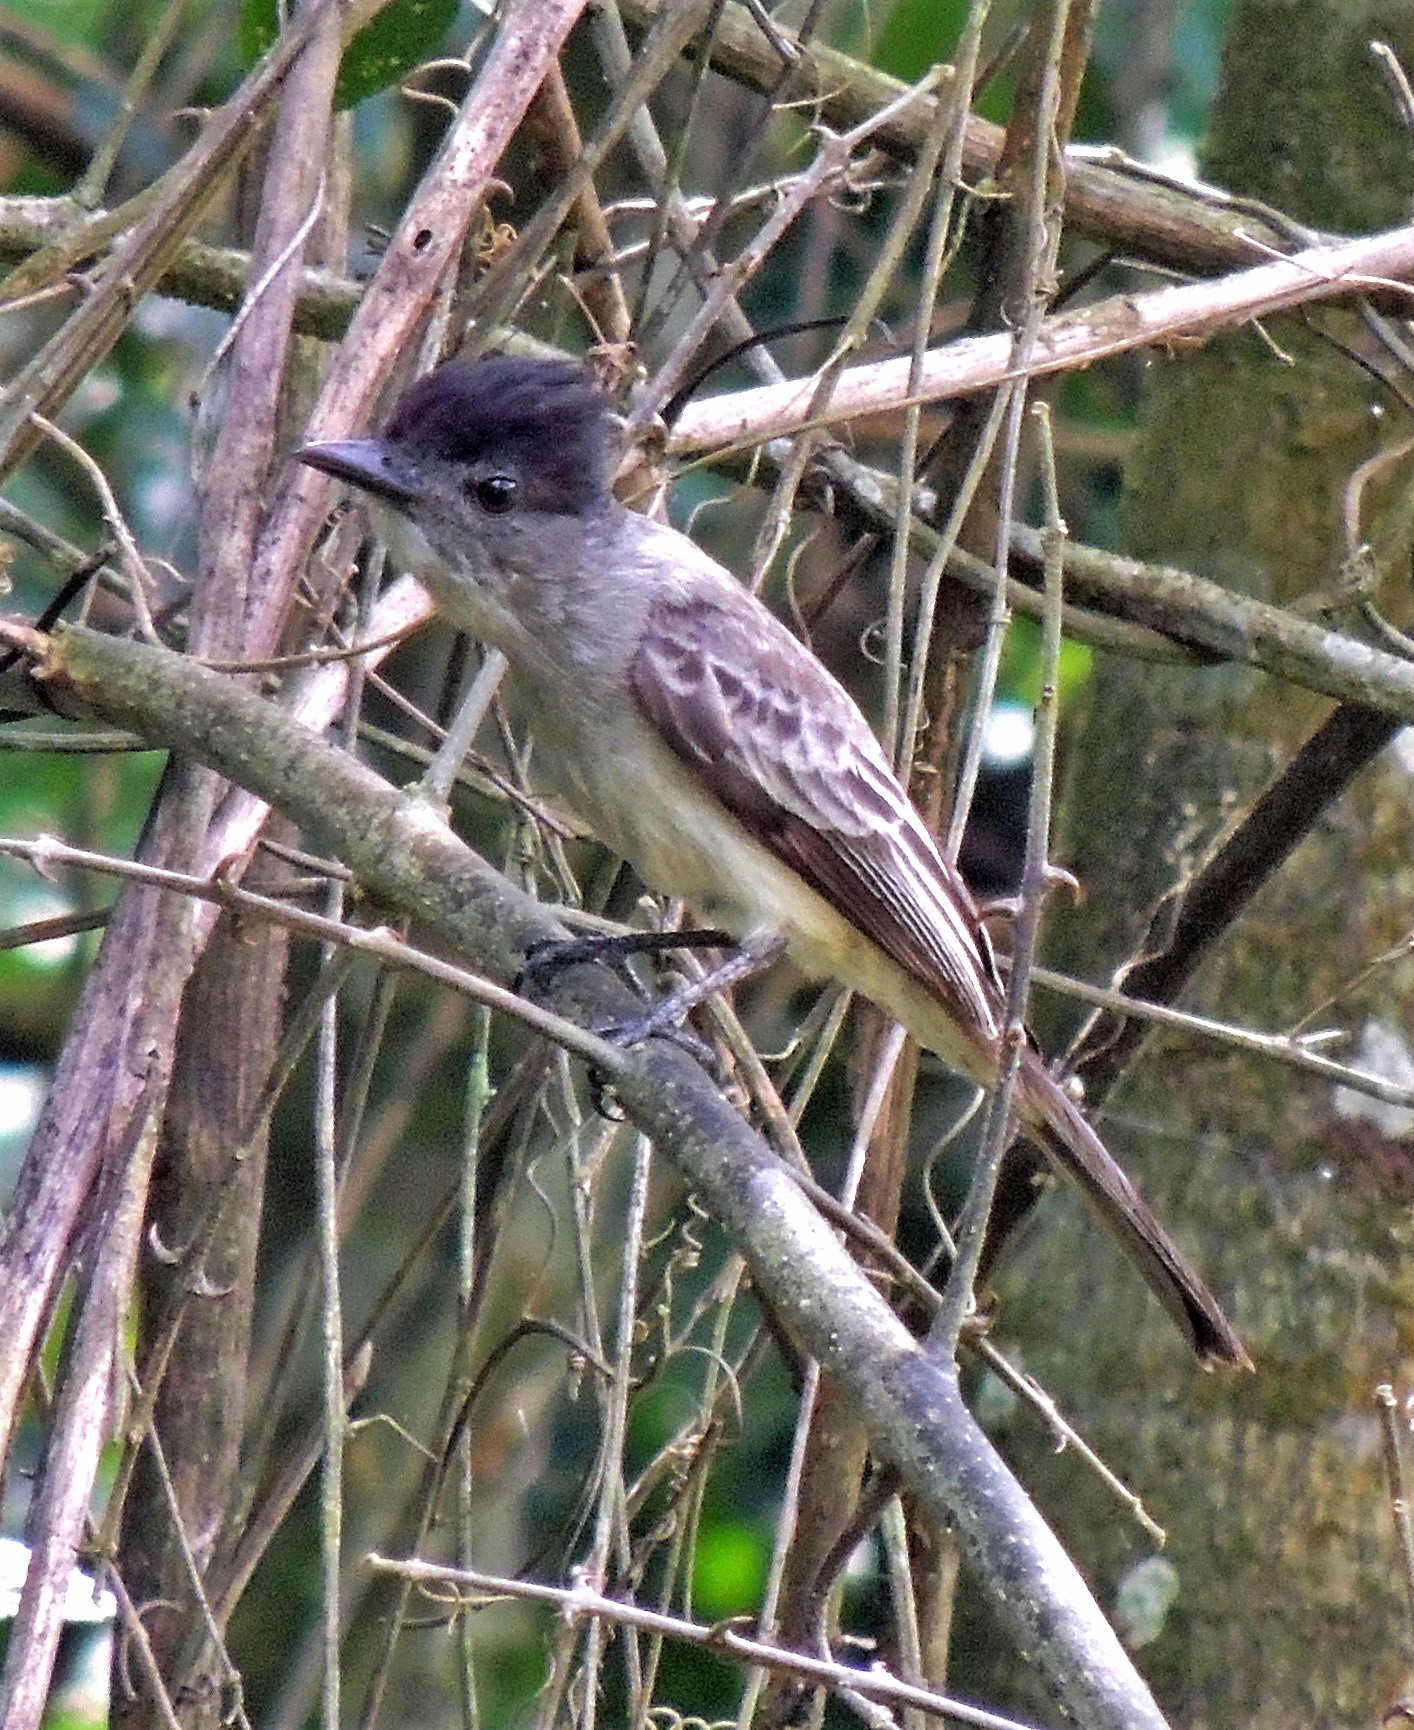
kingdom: Animalia
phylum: Chordata
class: Aves
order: Passeriformes
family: Tyrannidae
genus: Sirystes
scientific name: Sirystes sibilator
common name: Sirystes
